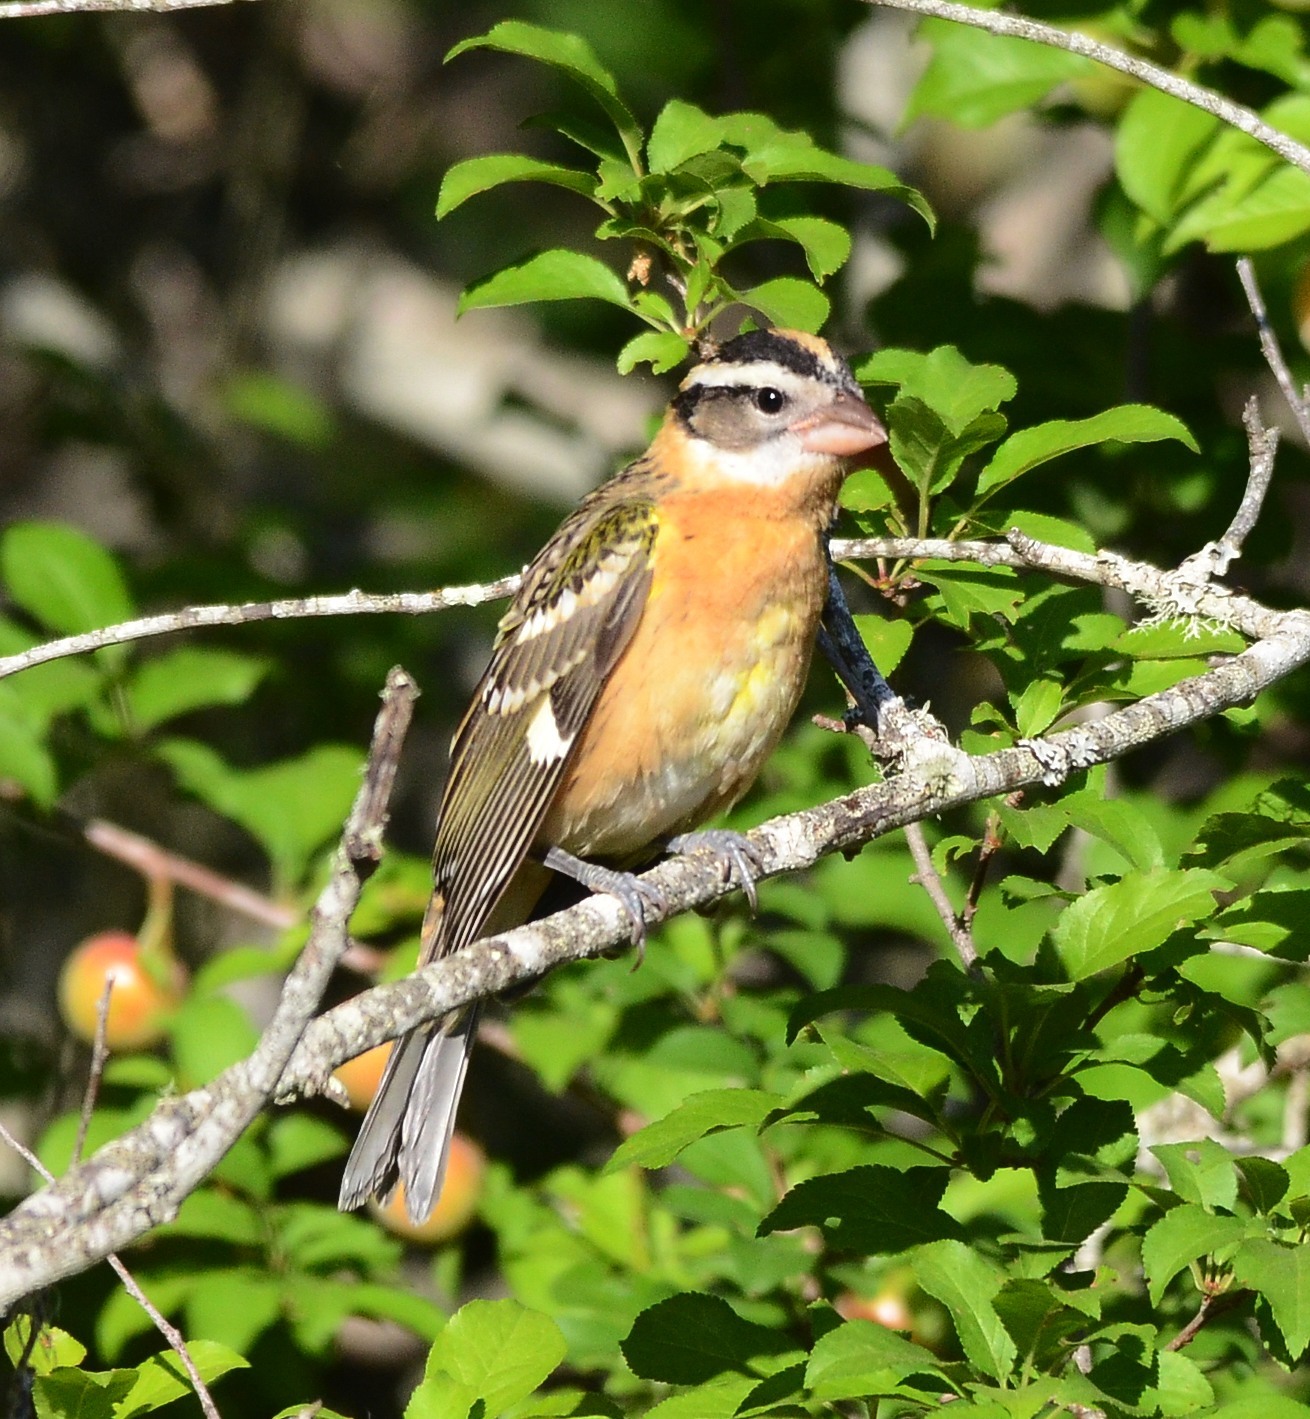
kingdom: Animalia
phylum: Chordata
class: Aves
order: Passeriformes
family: Cardinalidae
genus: Pheucticus
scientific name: Pheucticus melanocephalus
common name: Black-headed grosbeak
